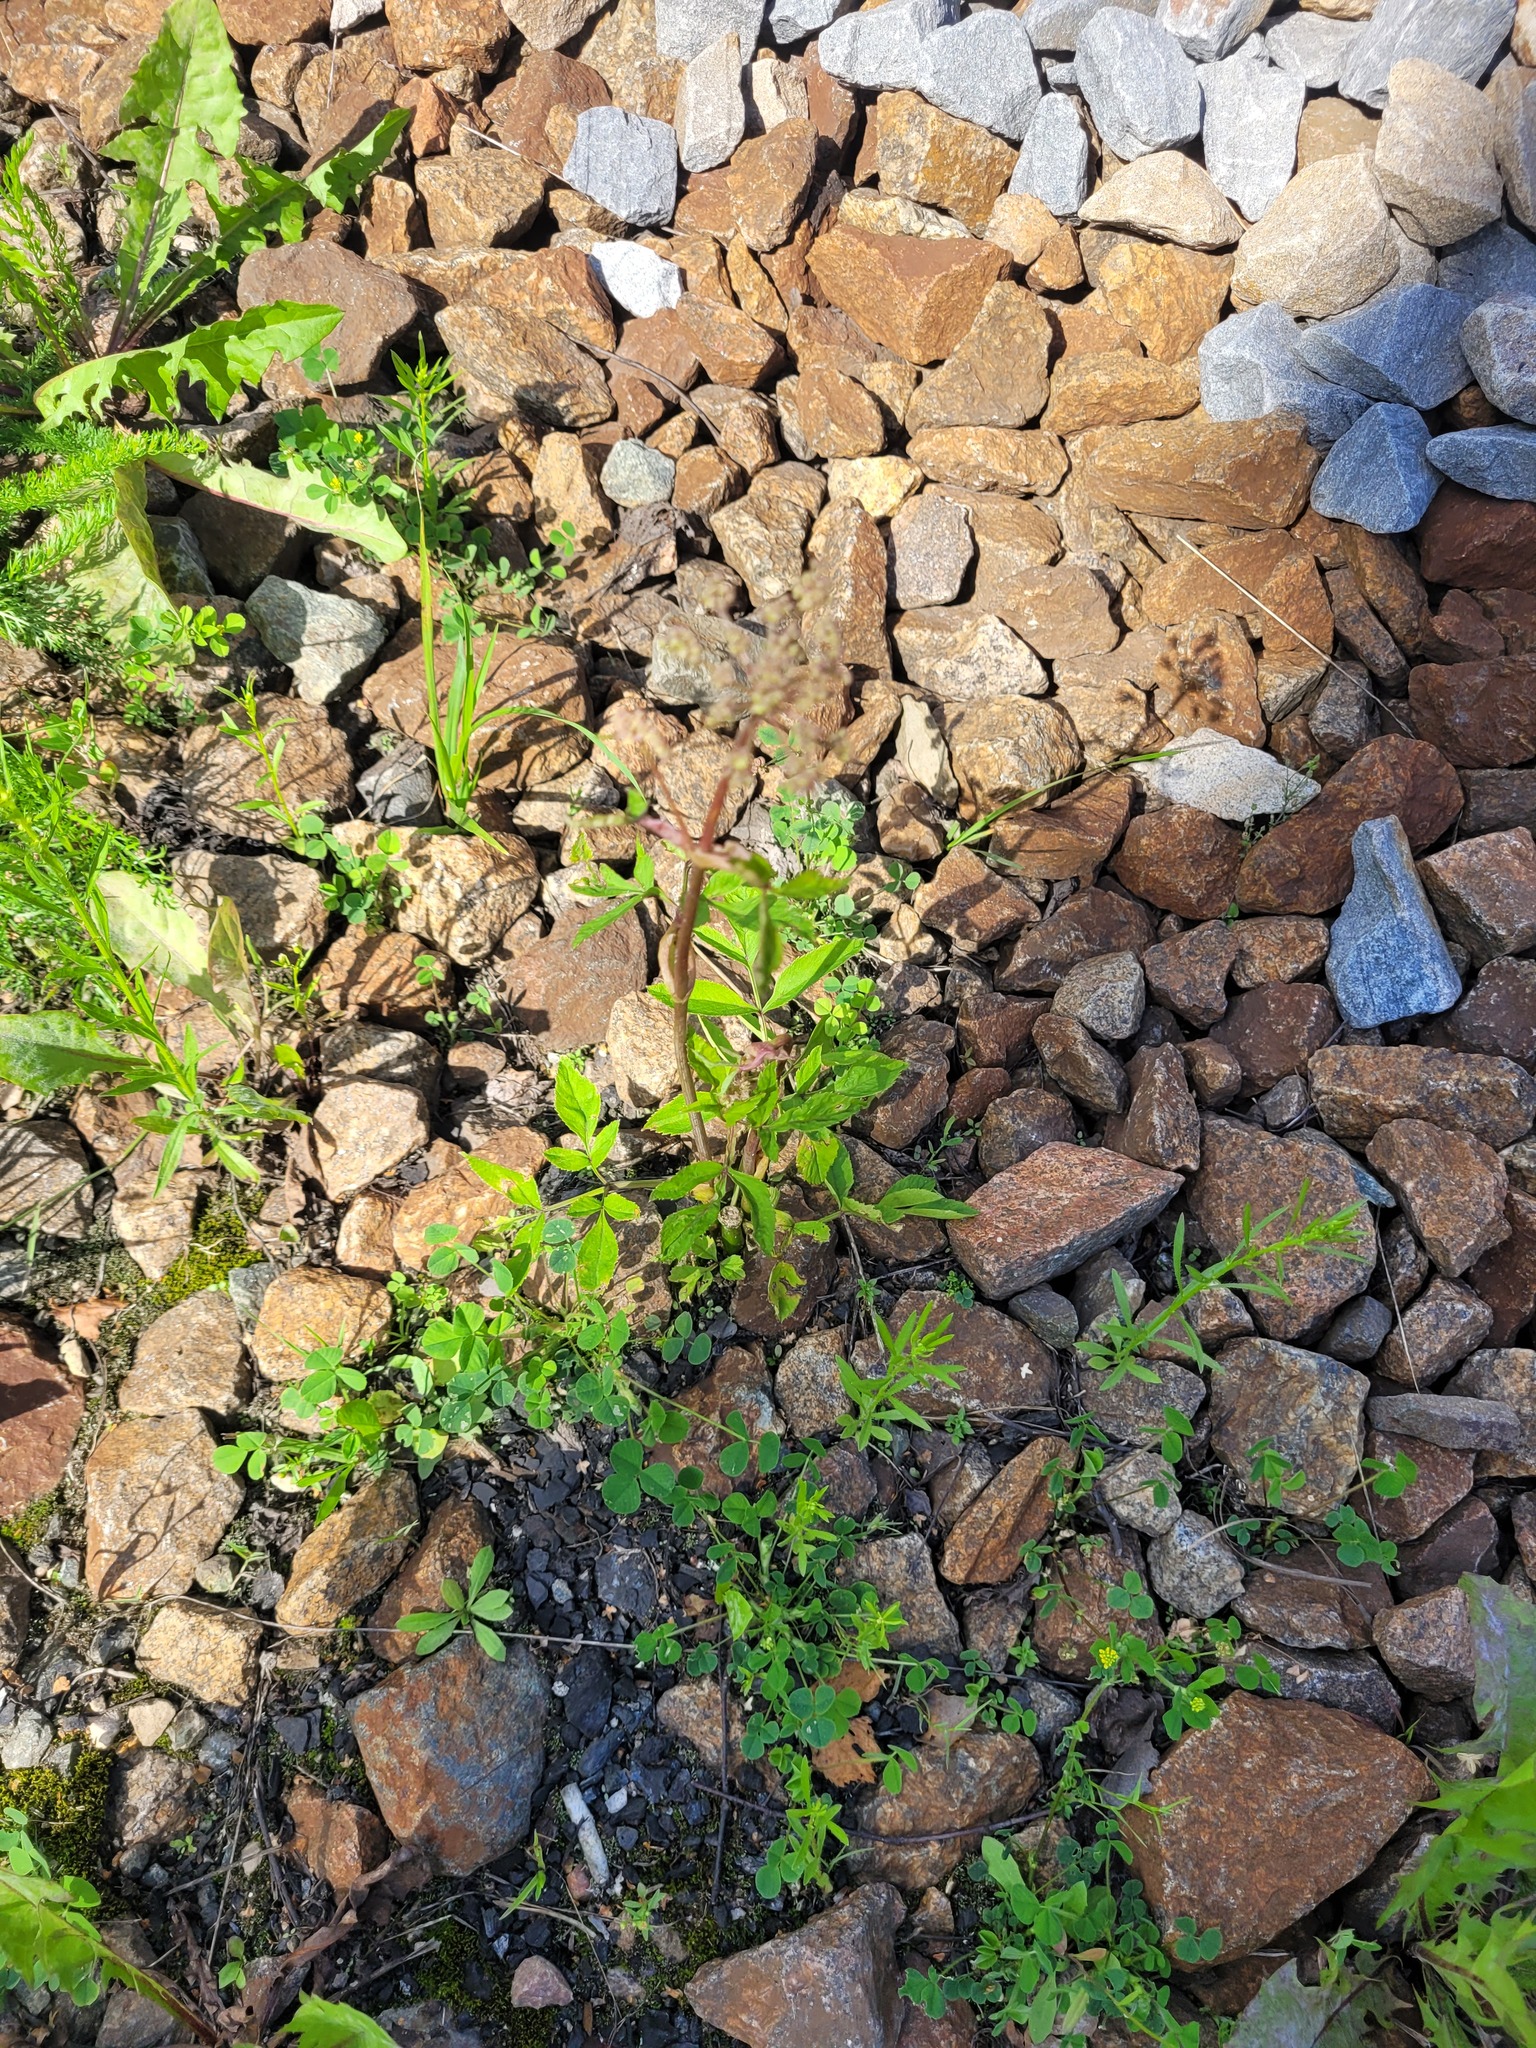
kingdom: Plantae
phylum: Tracheophyta
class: Magnoliopsida
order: Apiales
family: Apiaceae
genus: Angelica
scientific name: Angelica sylvestris
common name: Wild angelica
